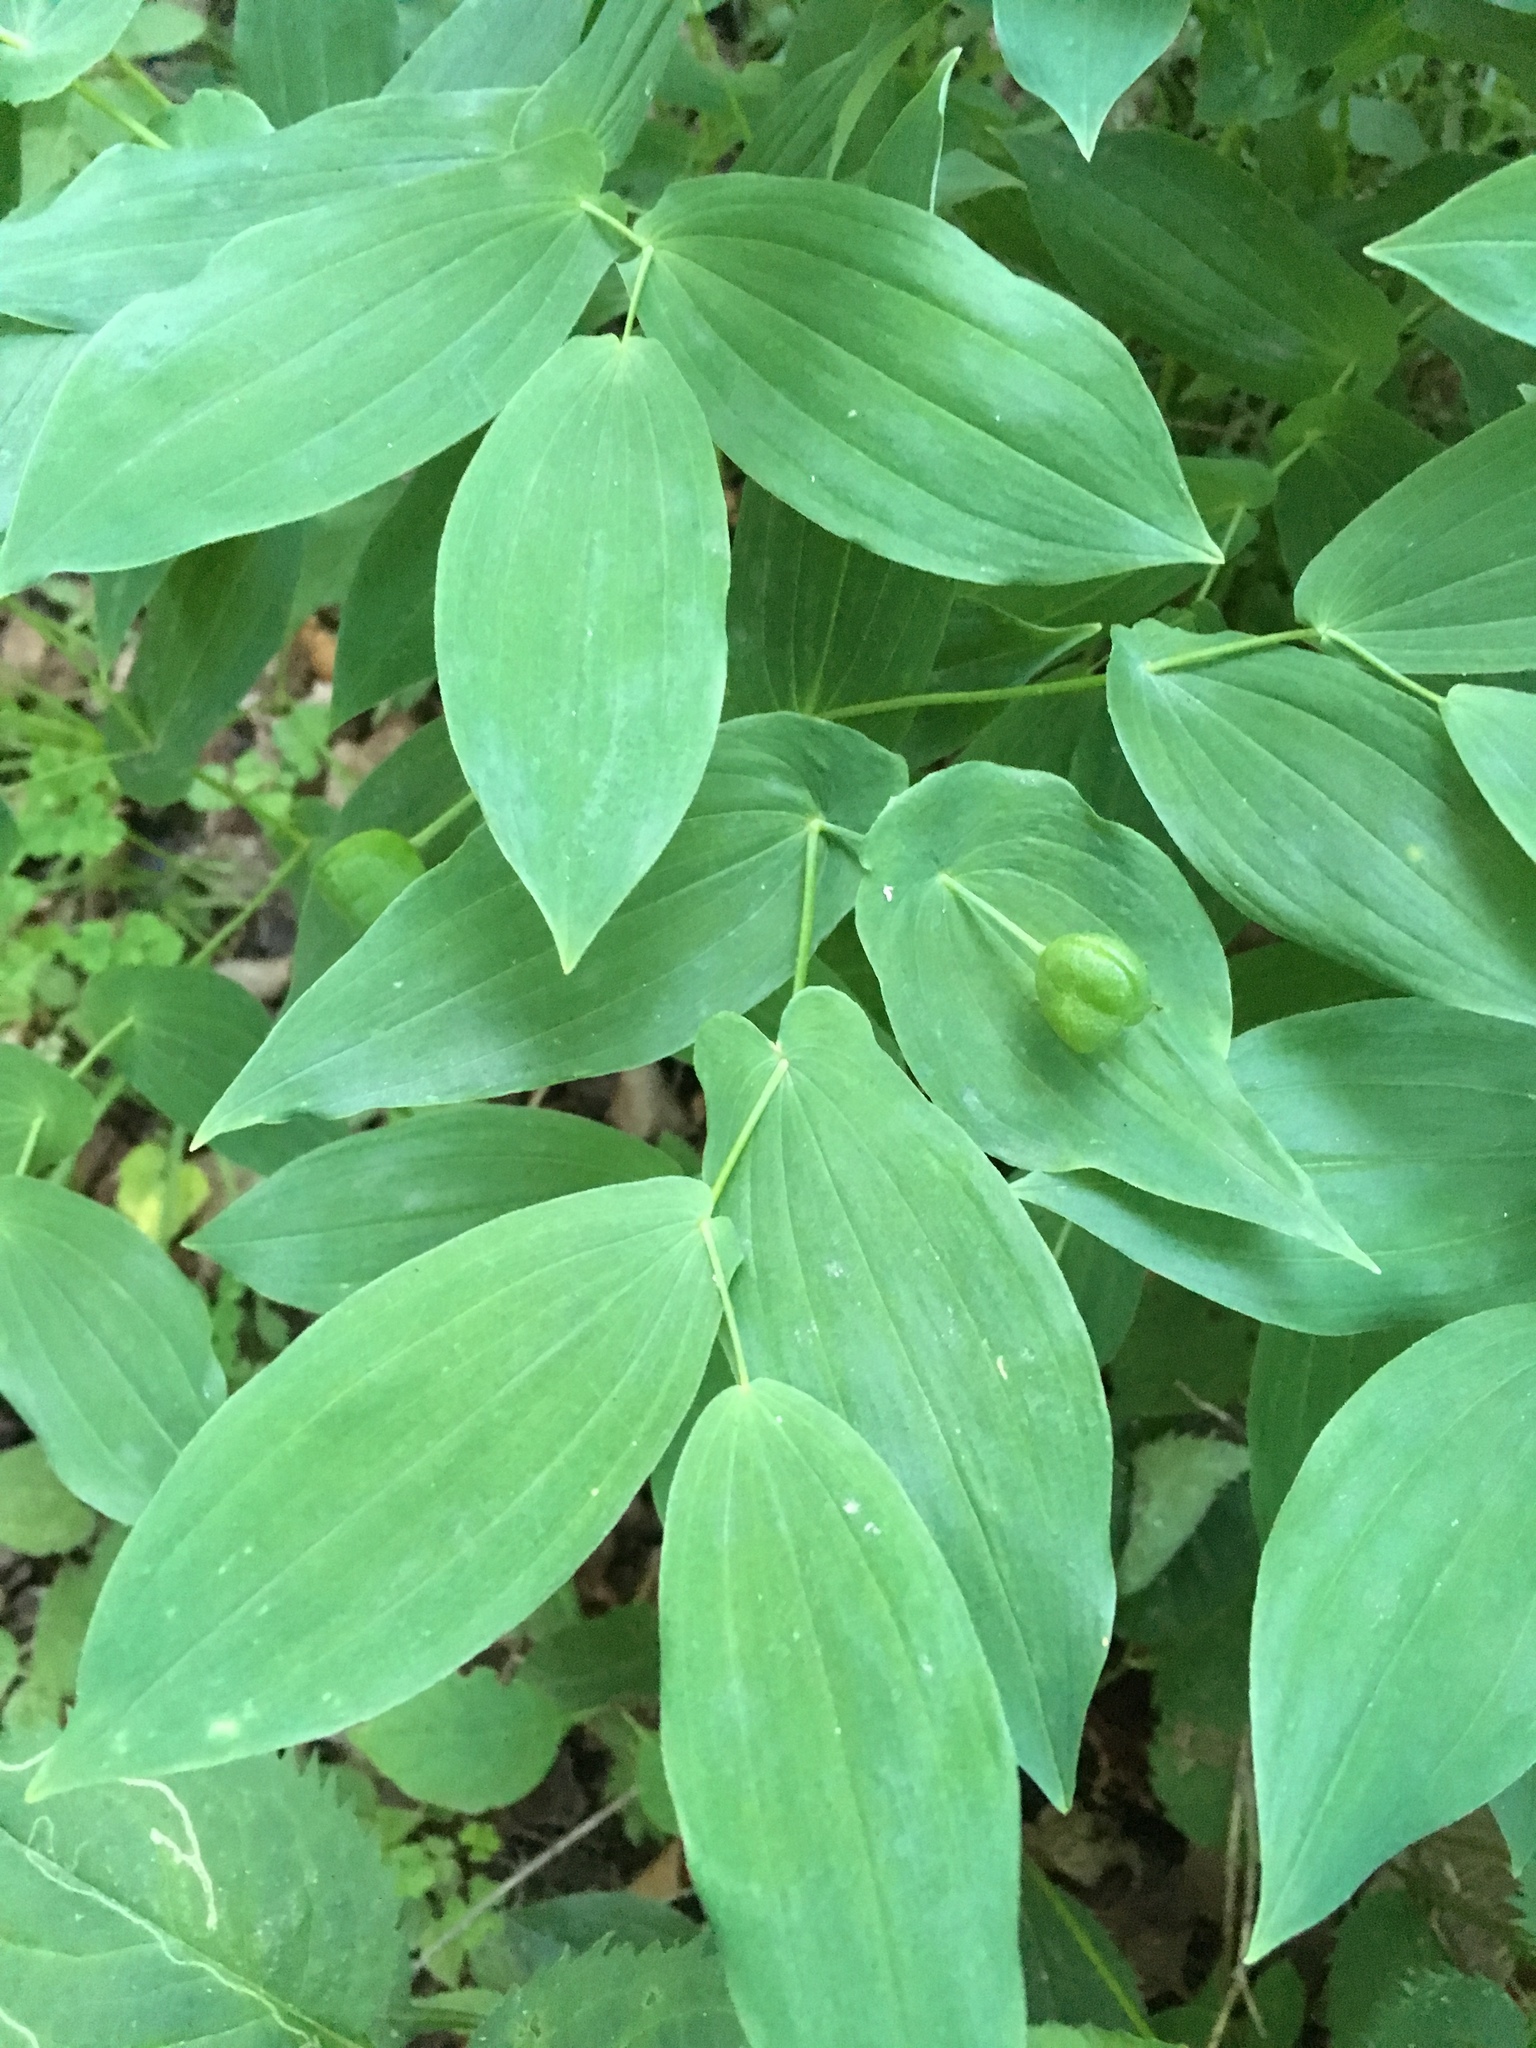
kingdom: Plantae
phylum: Tracheophyta
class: Liliopsida
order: Liliales
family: Colchicaceae
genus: Uvularia
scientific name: Uvularia grandiflora
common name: Bellwort
